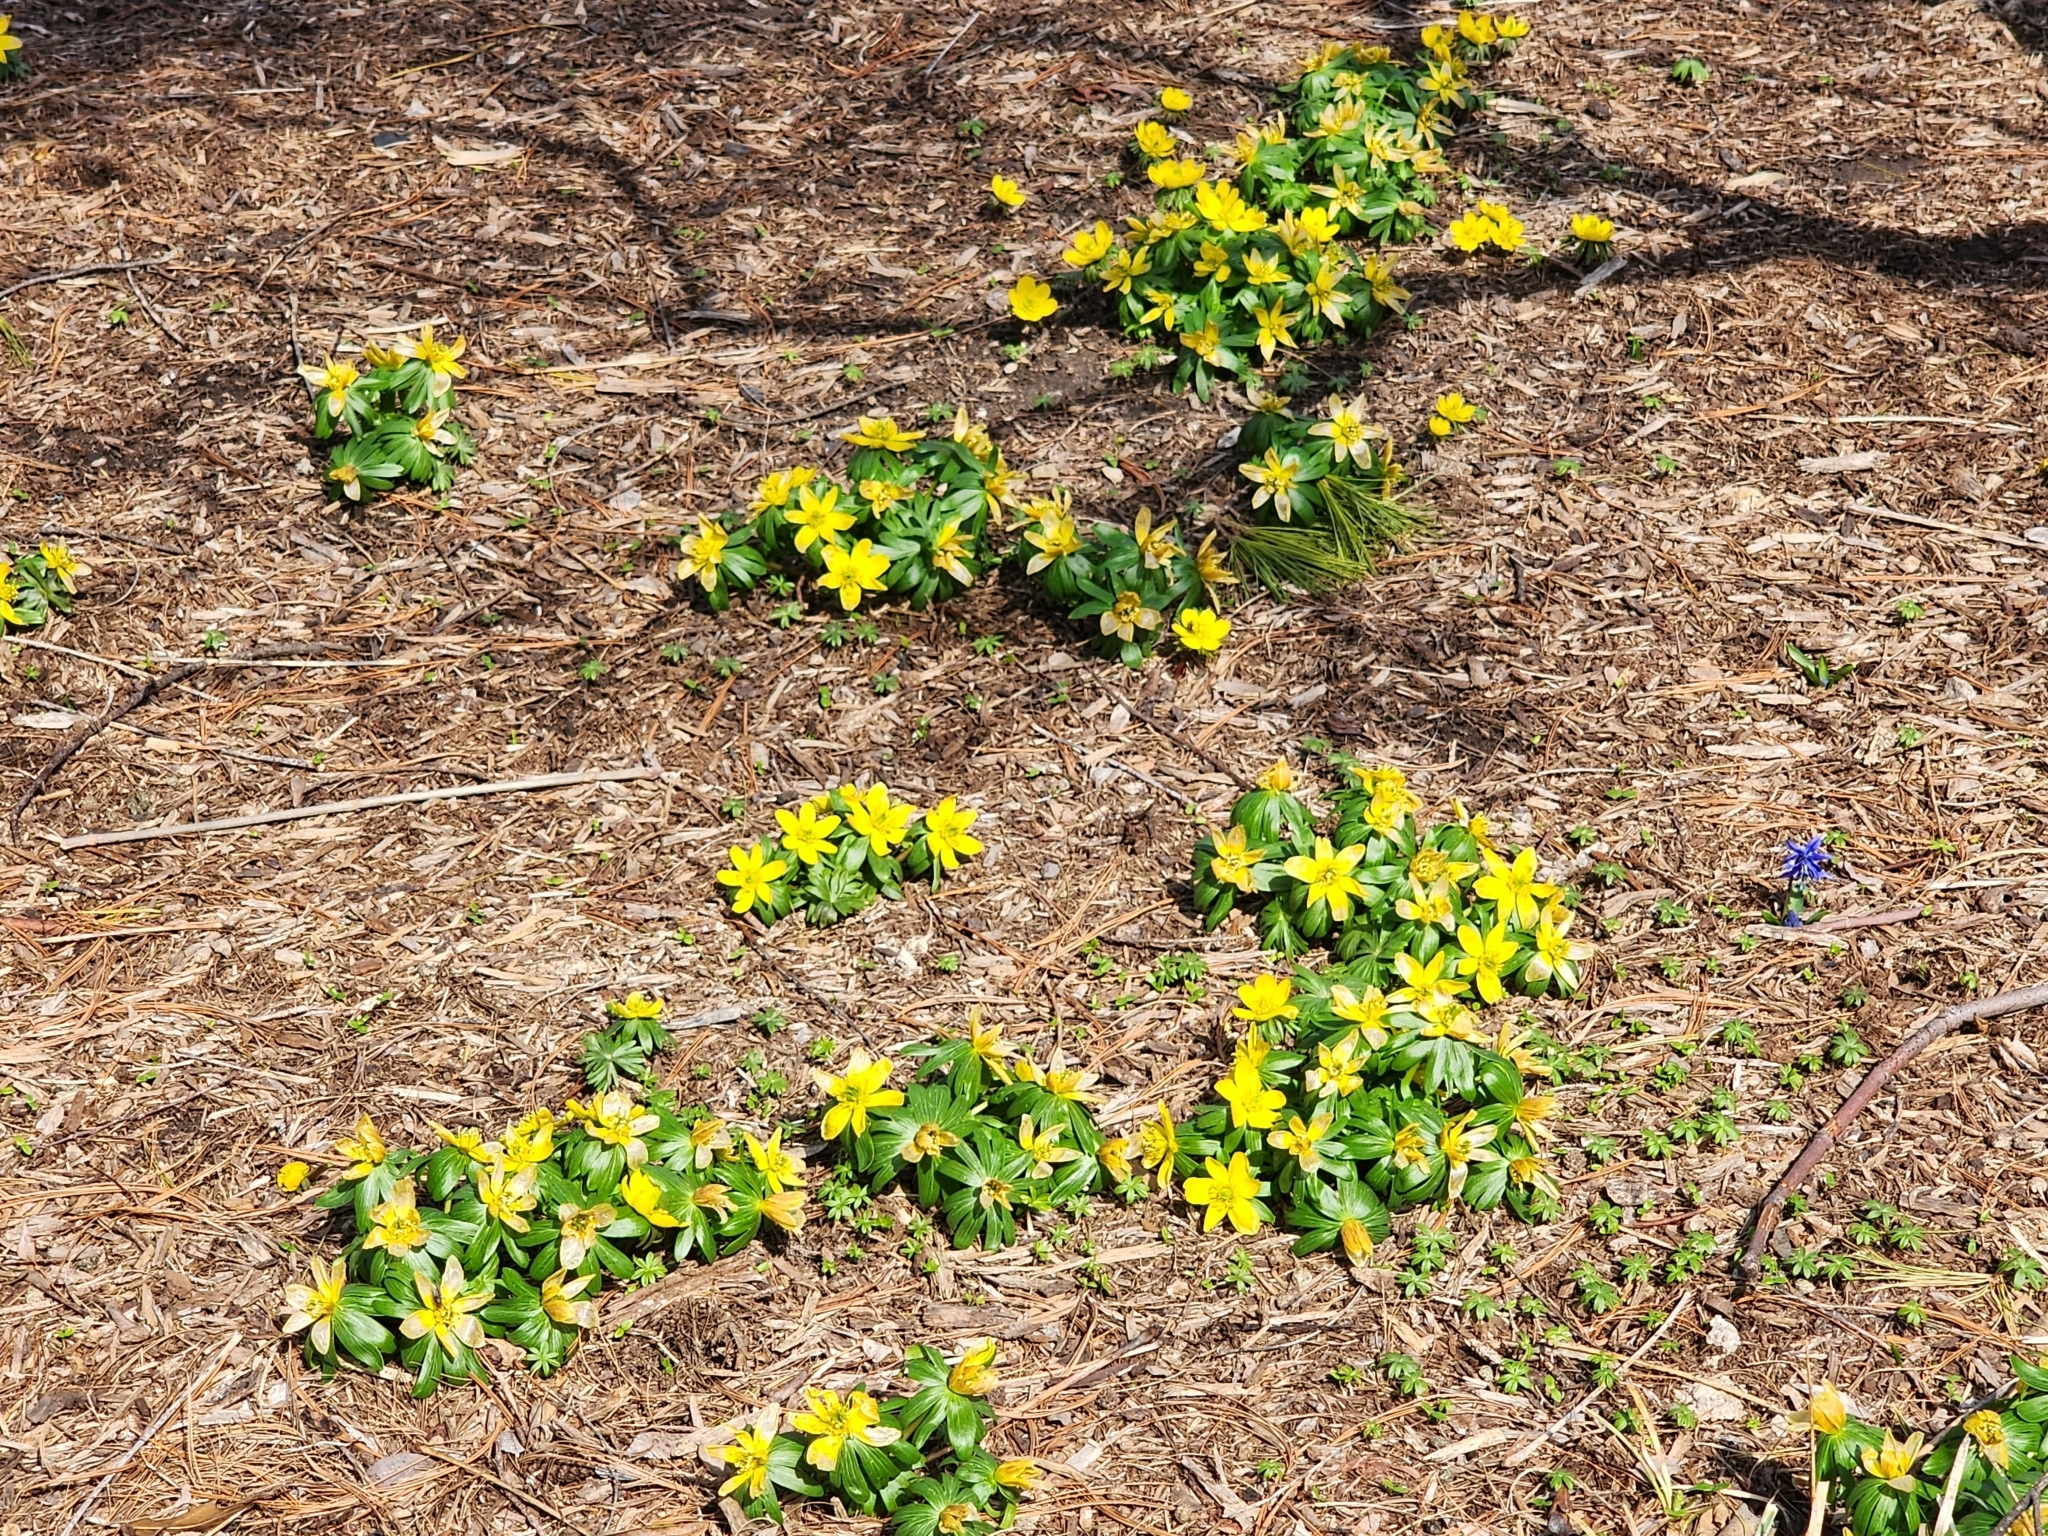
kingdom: Plantae
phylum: Tracheophyta
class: Magnoliopsida
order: Ranunculales
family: Ranunculaceae
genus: Eranthis
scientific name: Eranthis hyemalis
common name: Winter aconite
